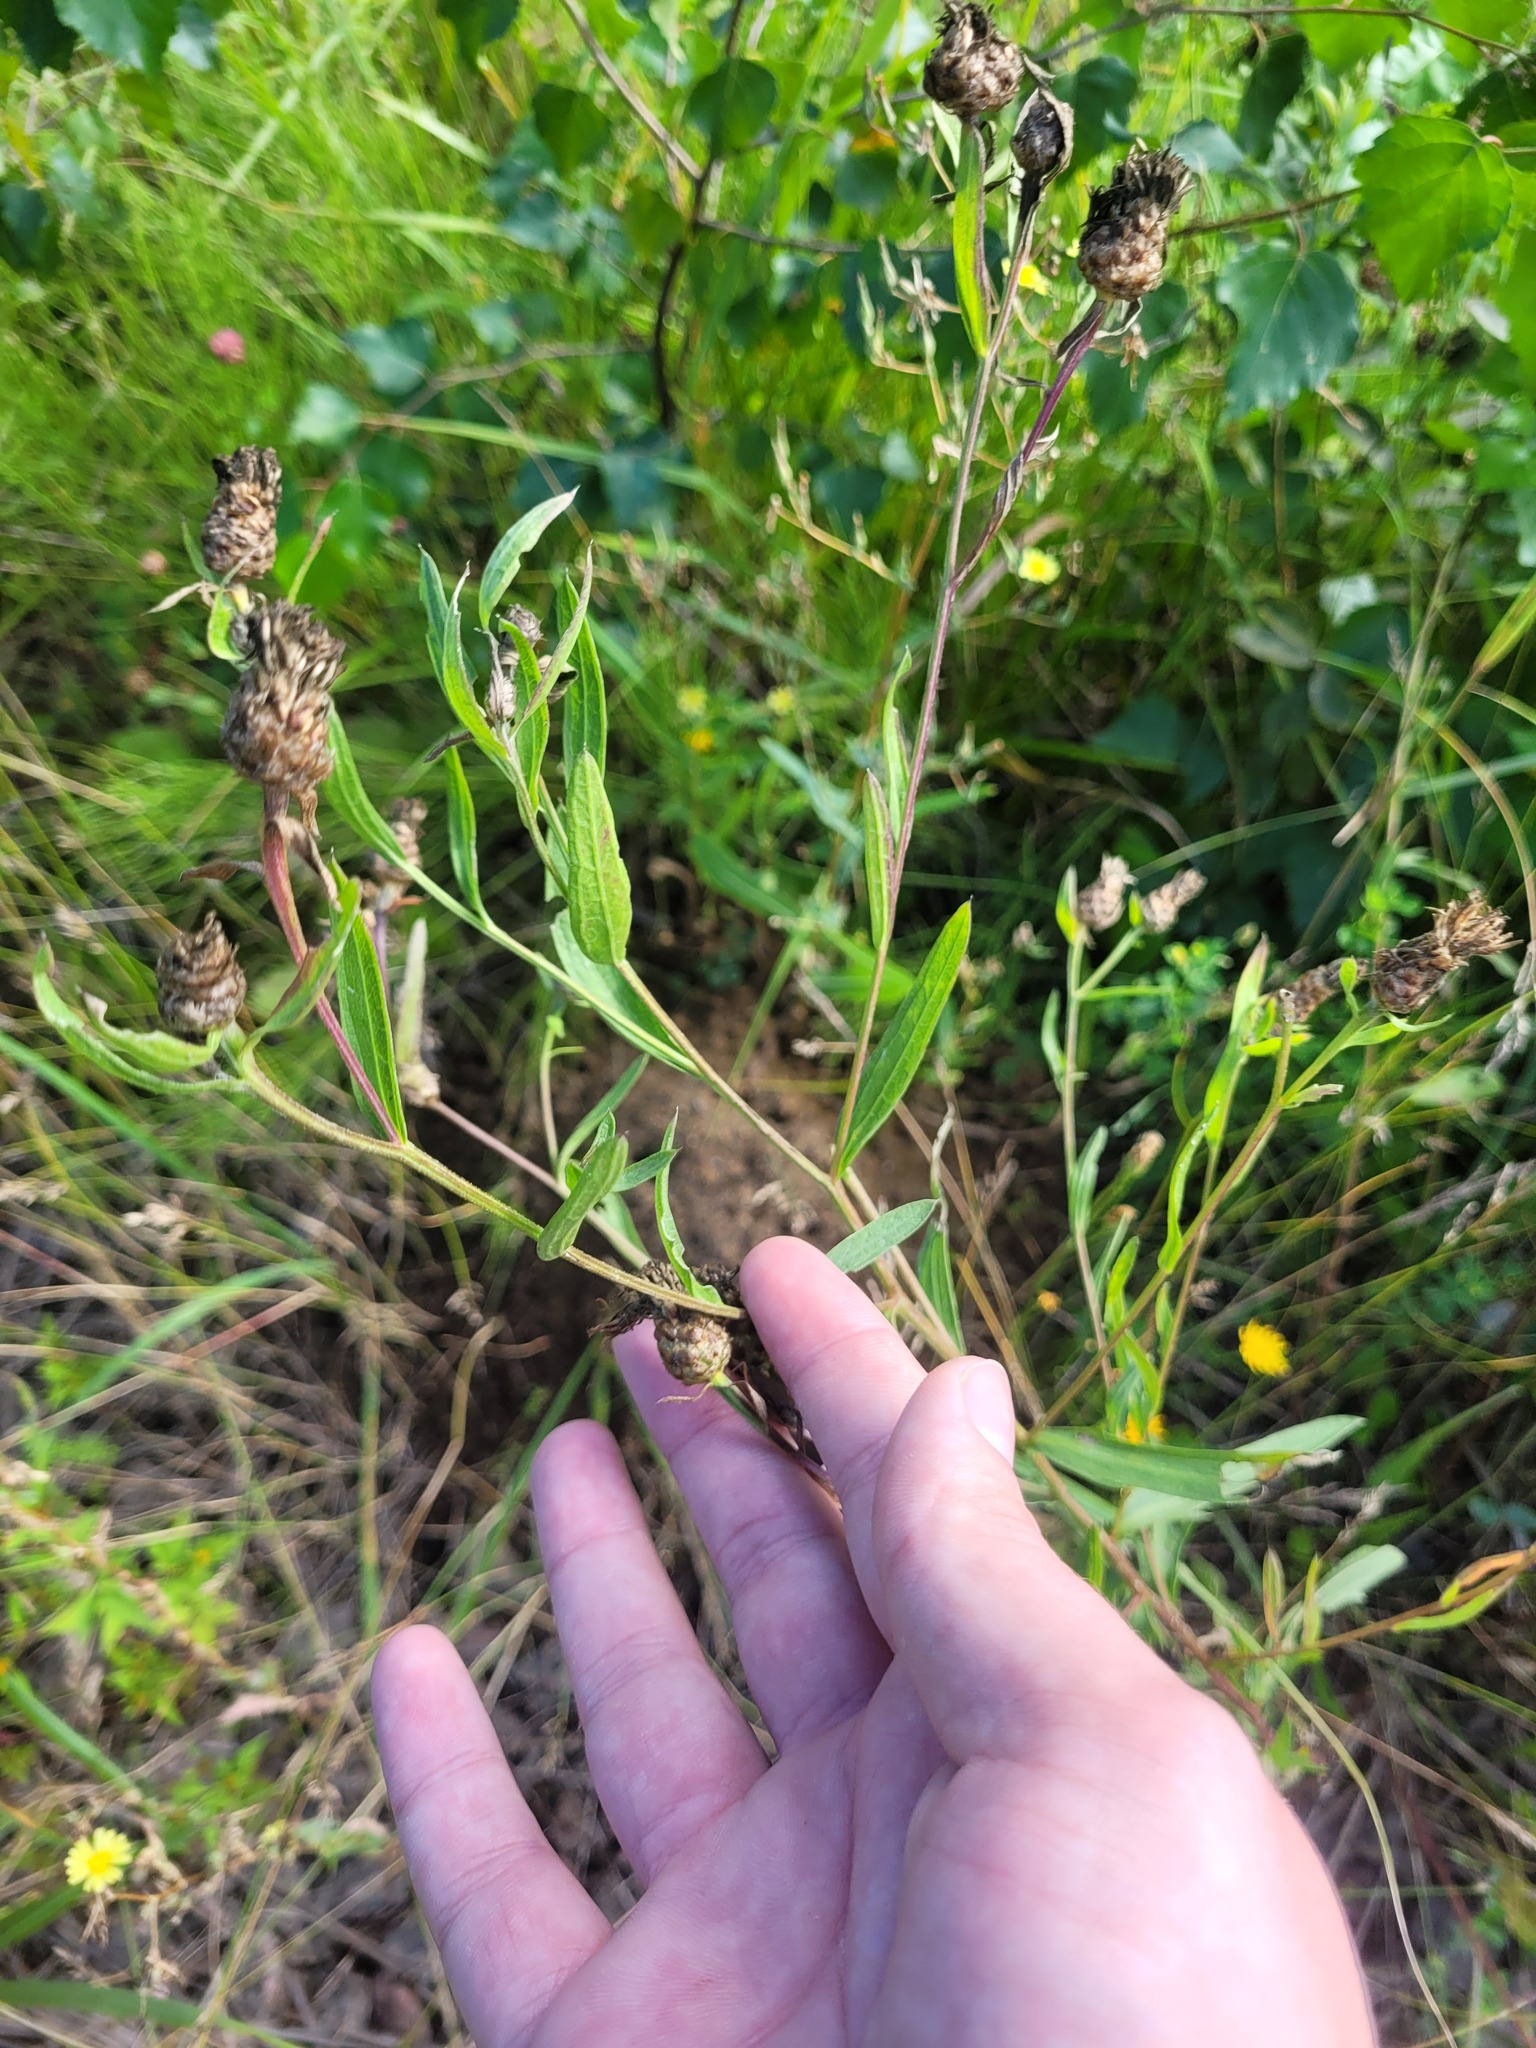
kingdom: Plantae
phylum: Tracheophyta
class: Magnoliopsida
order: Asterales
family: Asteraceae
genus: Centaurea
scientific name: Centaurea jacea
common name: Brown knapweed
